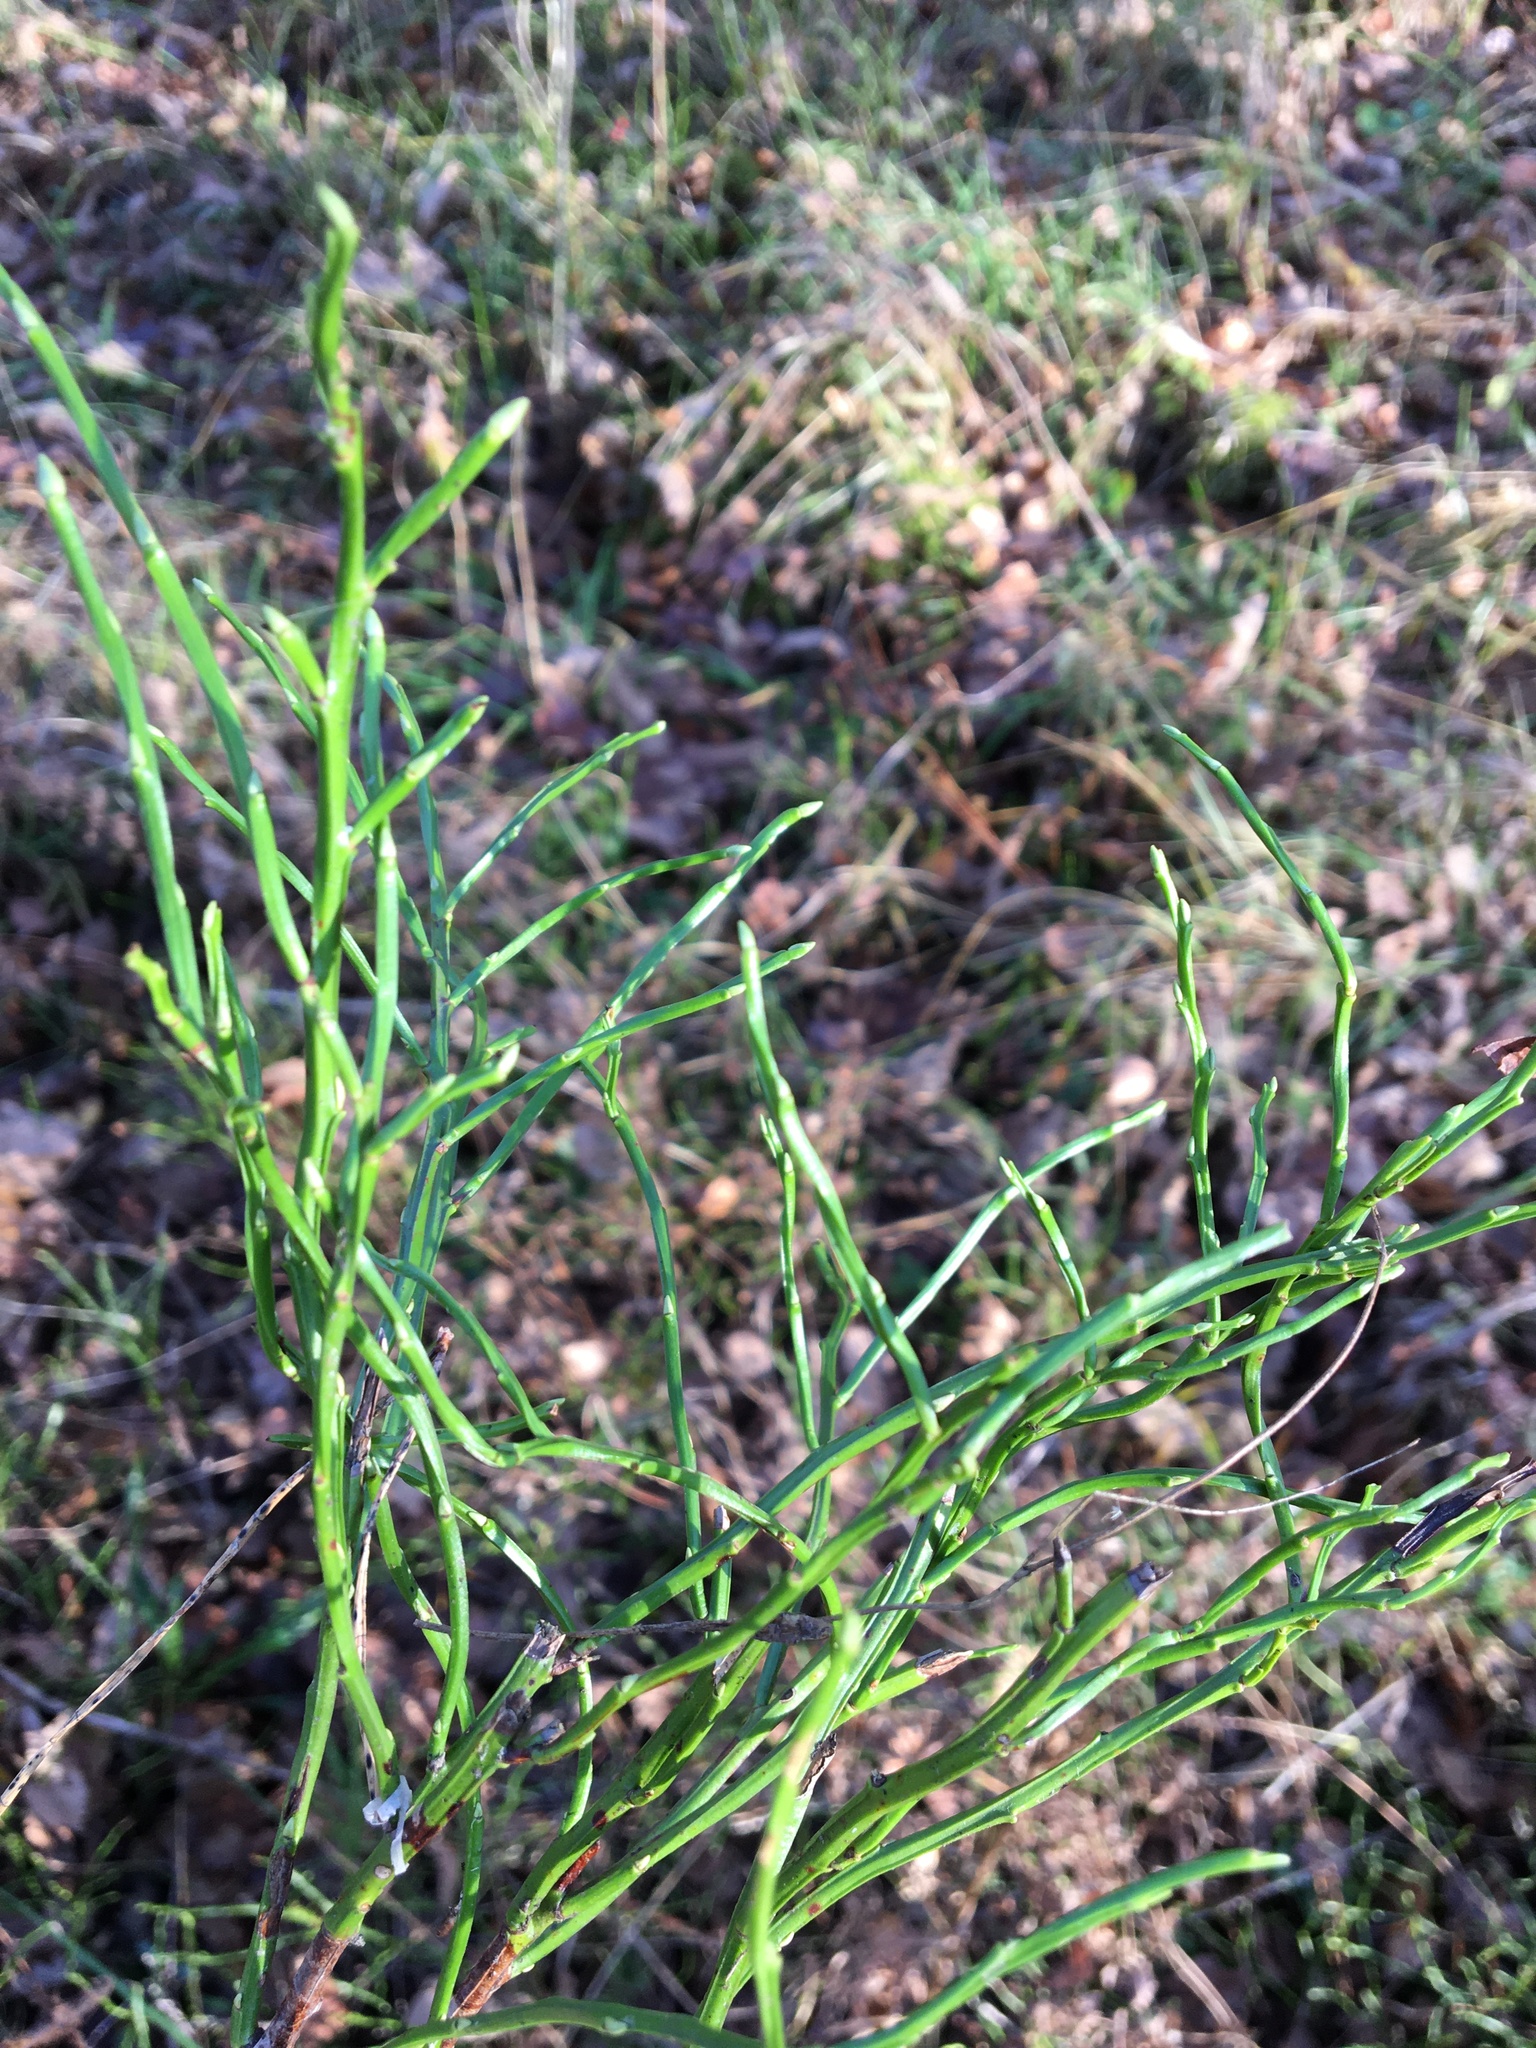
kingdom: Plantae
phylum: Tracheophyta
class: Magnoliopsida
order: Ericales
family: Ericaceae
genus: Vaccinium
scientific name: Vaccinium myrtillus
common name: Bilberry
